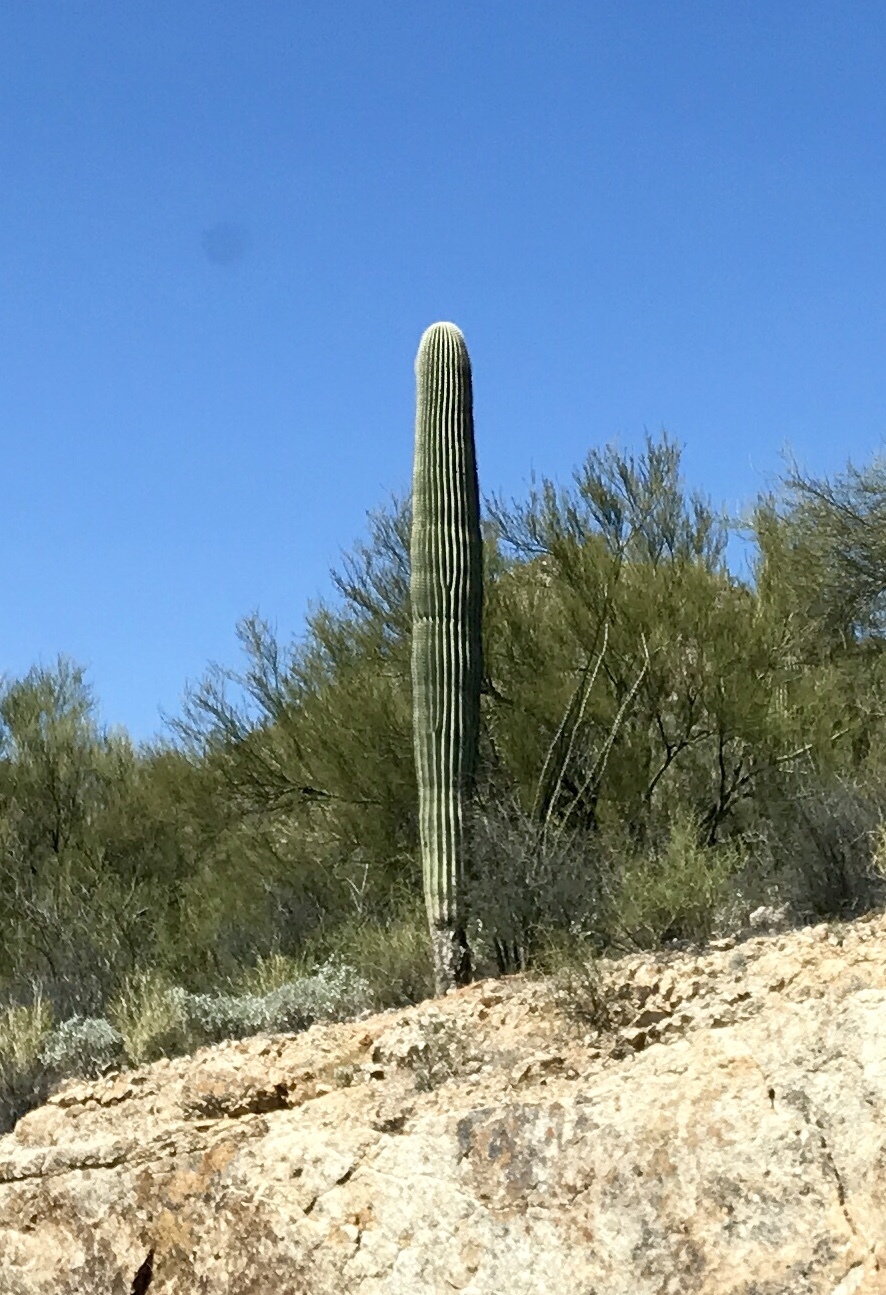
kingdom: Plantae
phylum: Tracheophyta
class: Magnoliopsida
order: Caryophyllales
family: Cactaceae
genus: Carnegiea
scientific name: Carnegiea gigantea
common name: Saguaro
